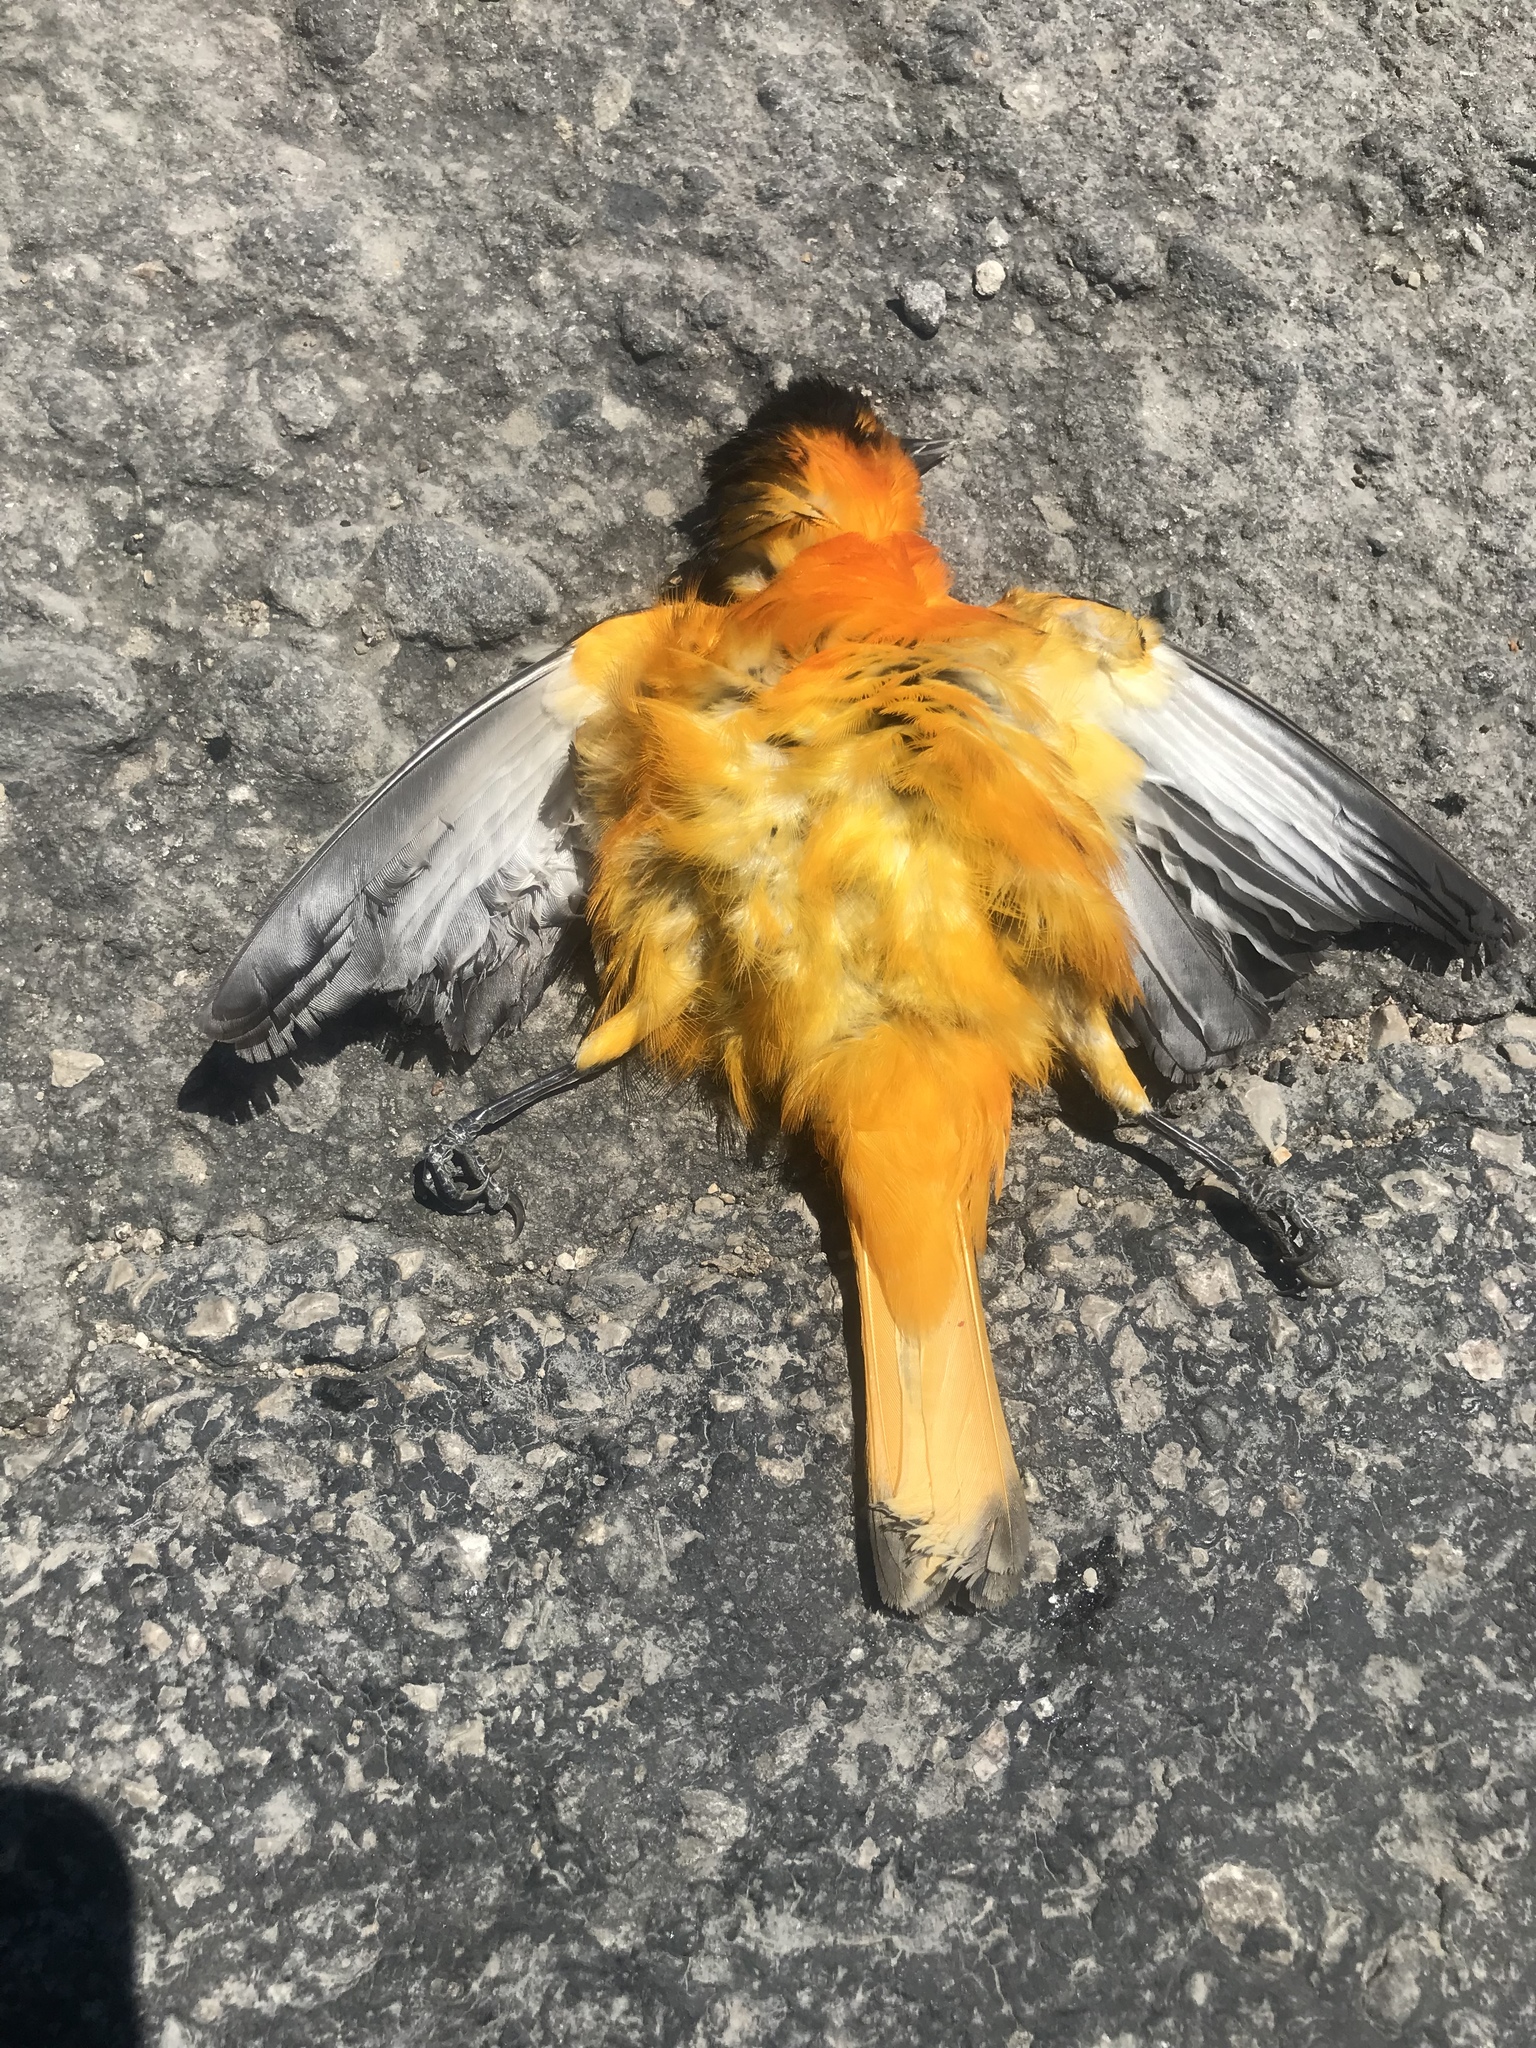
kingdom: Animalia
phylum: Chordata
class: Aves
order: Passeriformes
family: Icteridae
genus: Icterus
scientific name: Icterus bullockii
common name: Bullock's oriole
